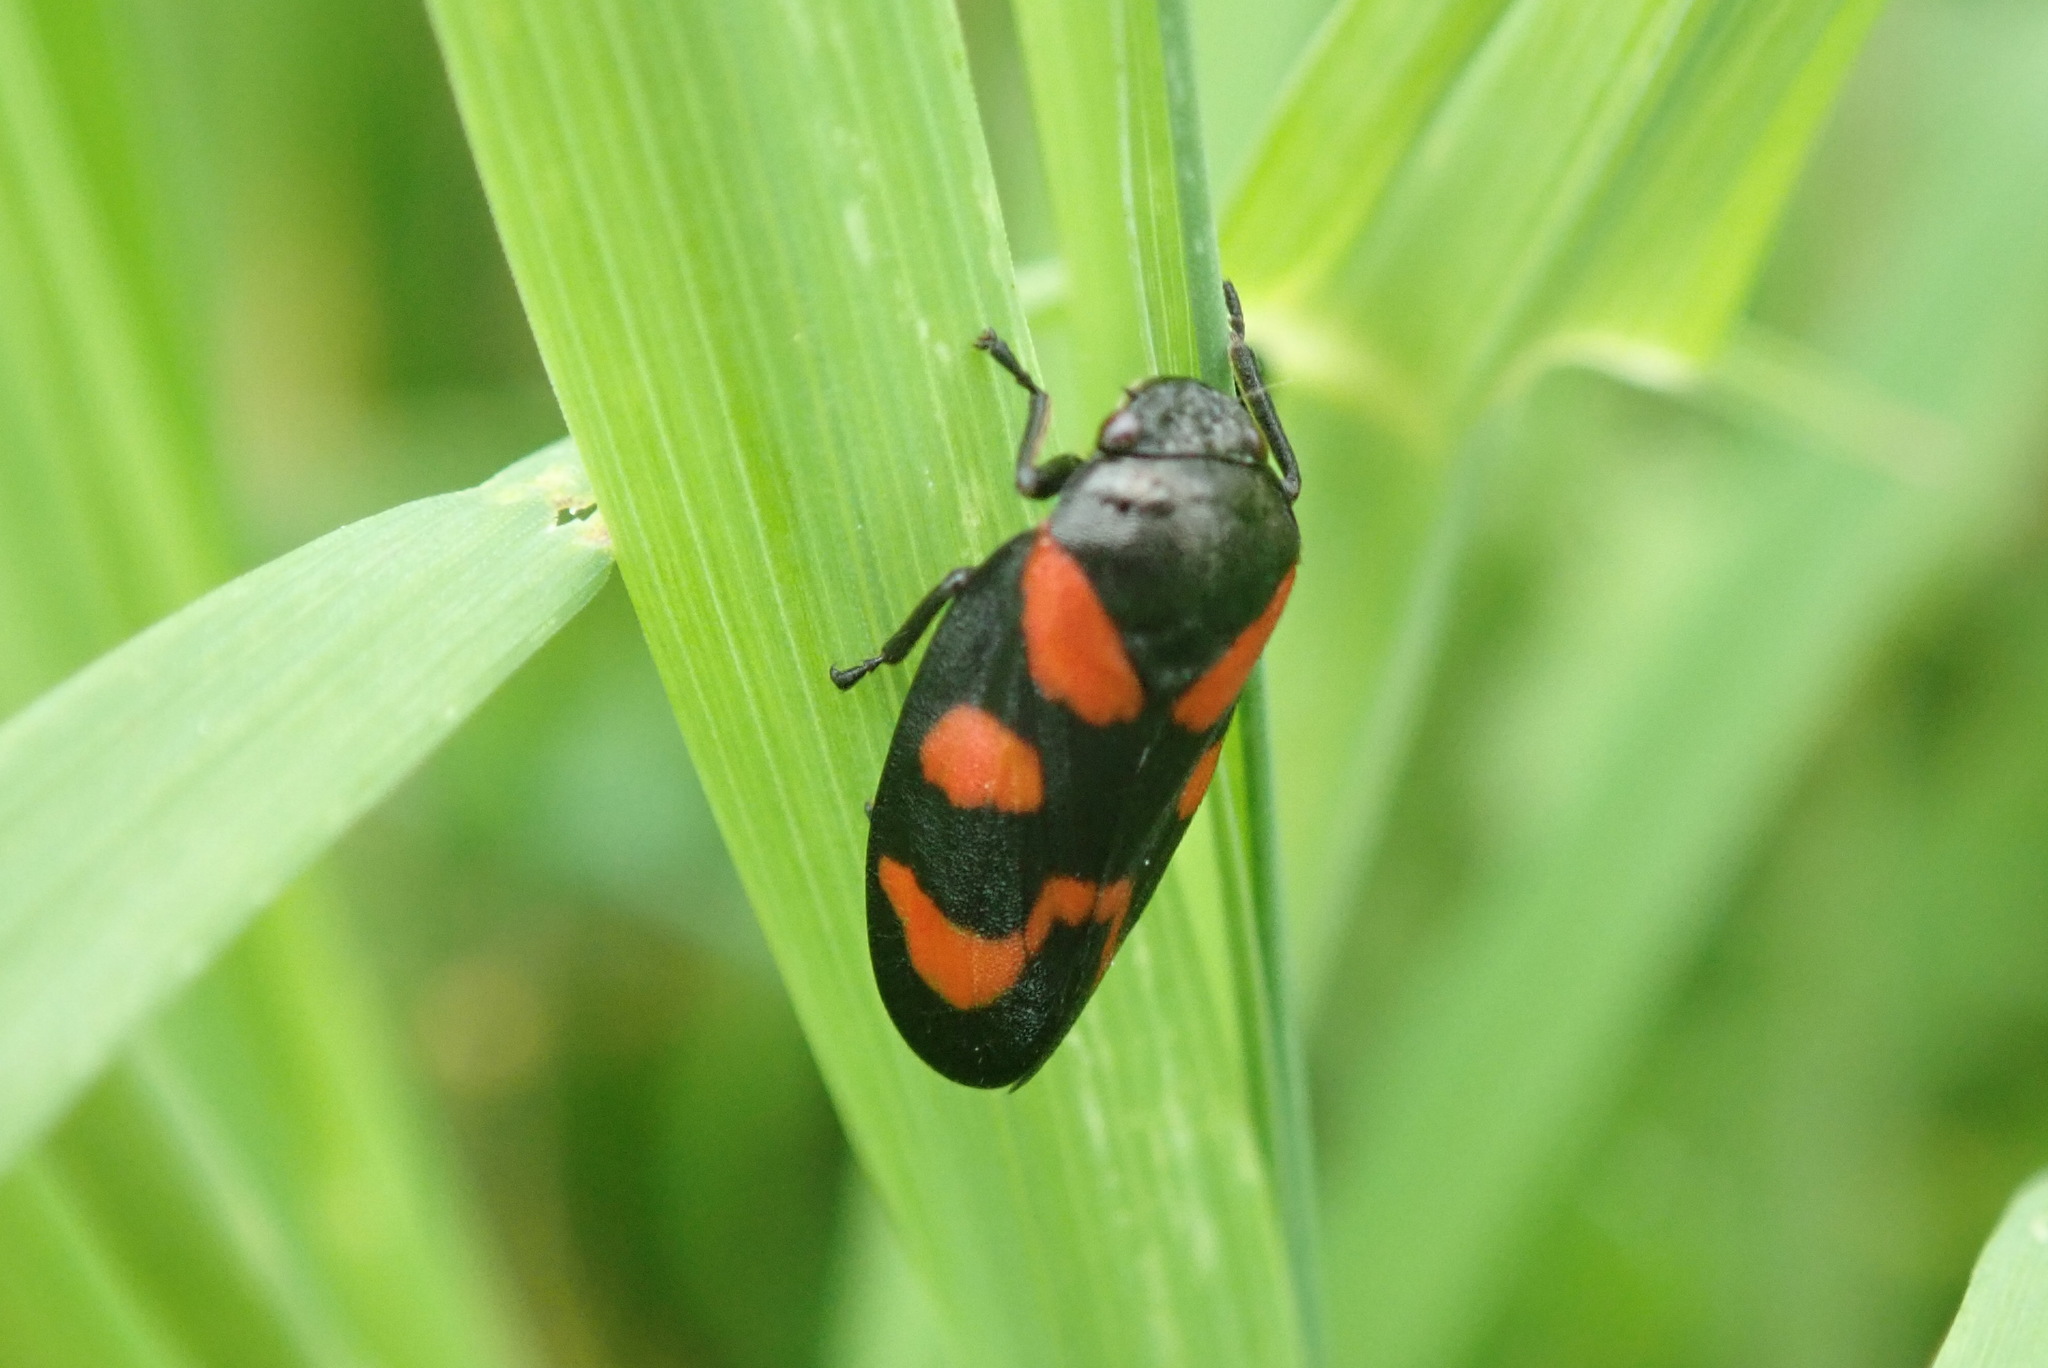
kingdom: Animalia
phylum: Arthropoda
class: Insecta
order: Hemiptera
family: Cercopidae
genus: Cercopis
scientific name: Cercopis vulnerata
